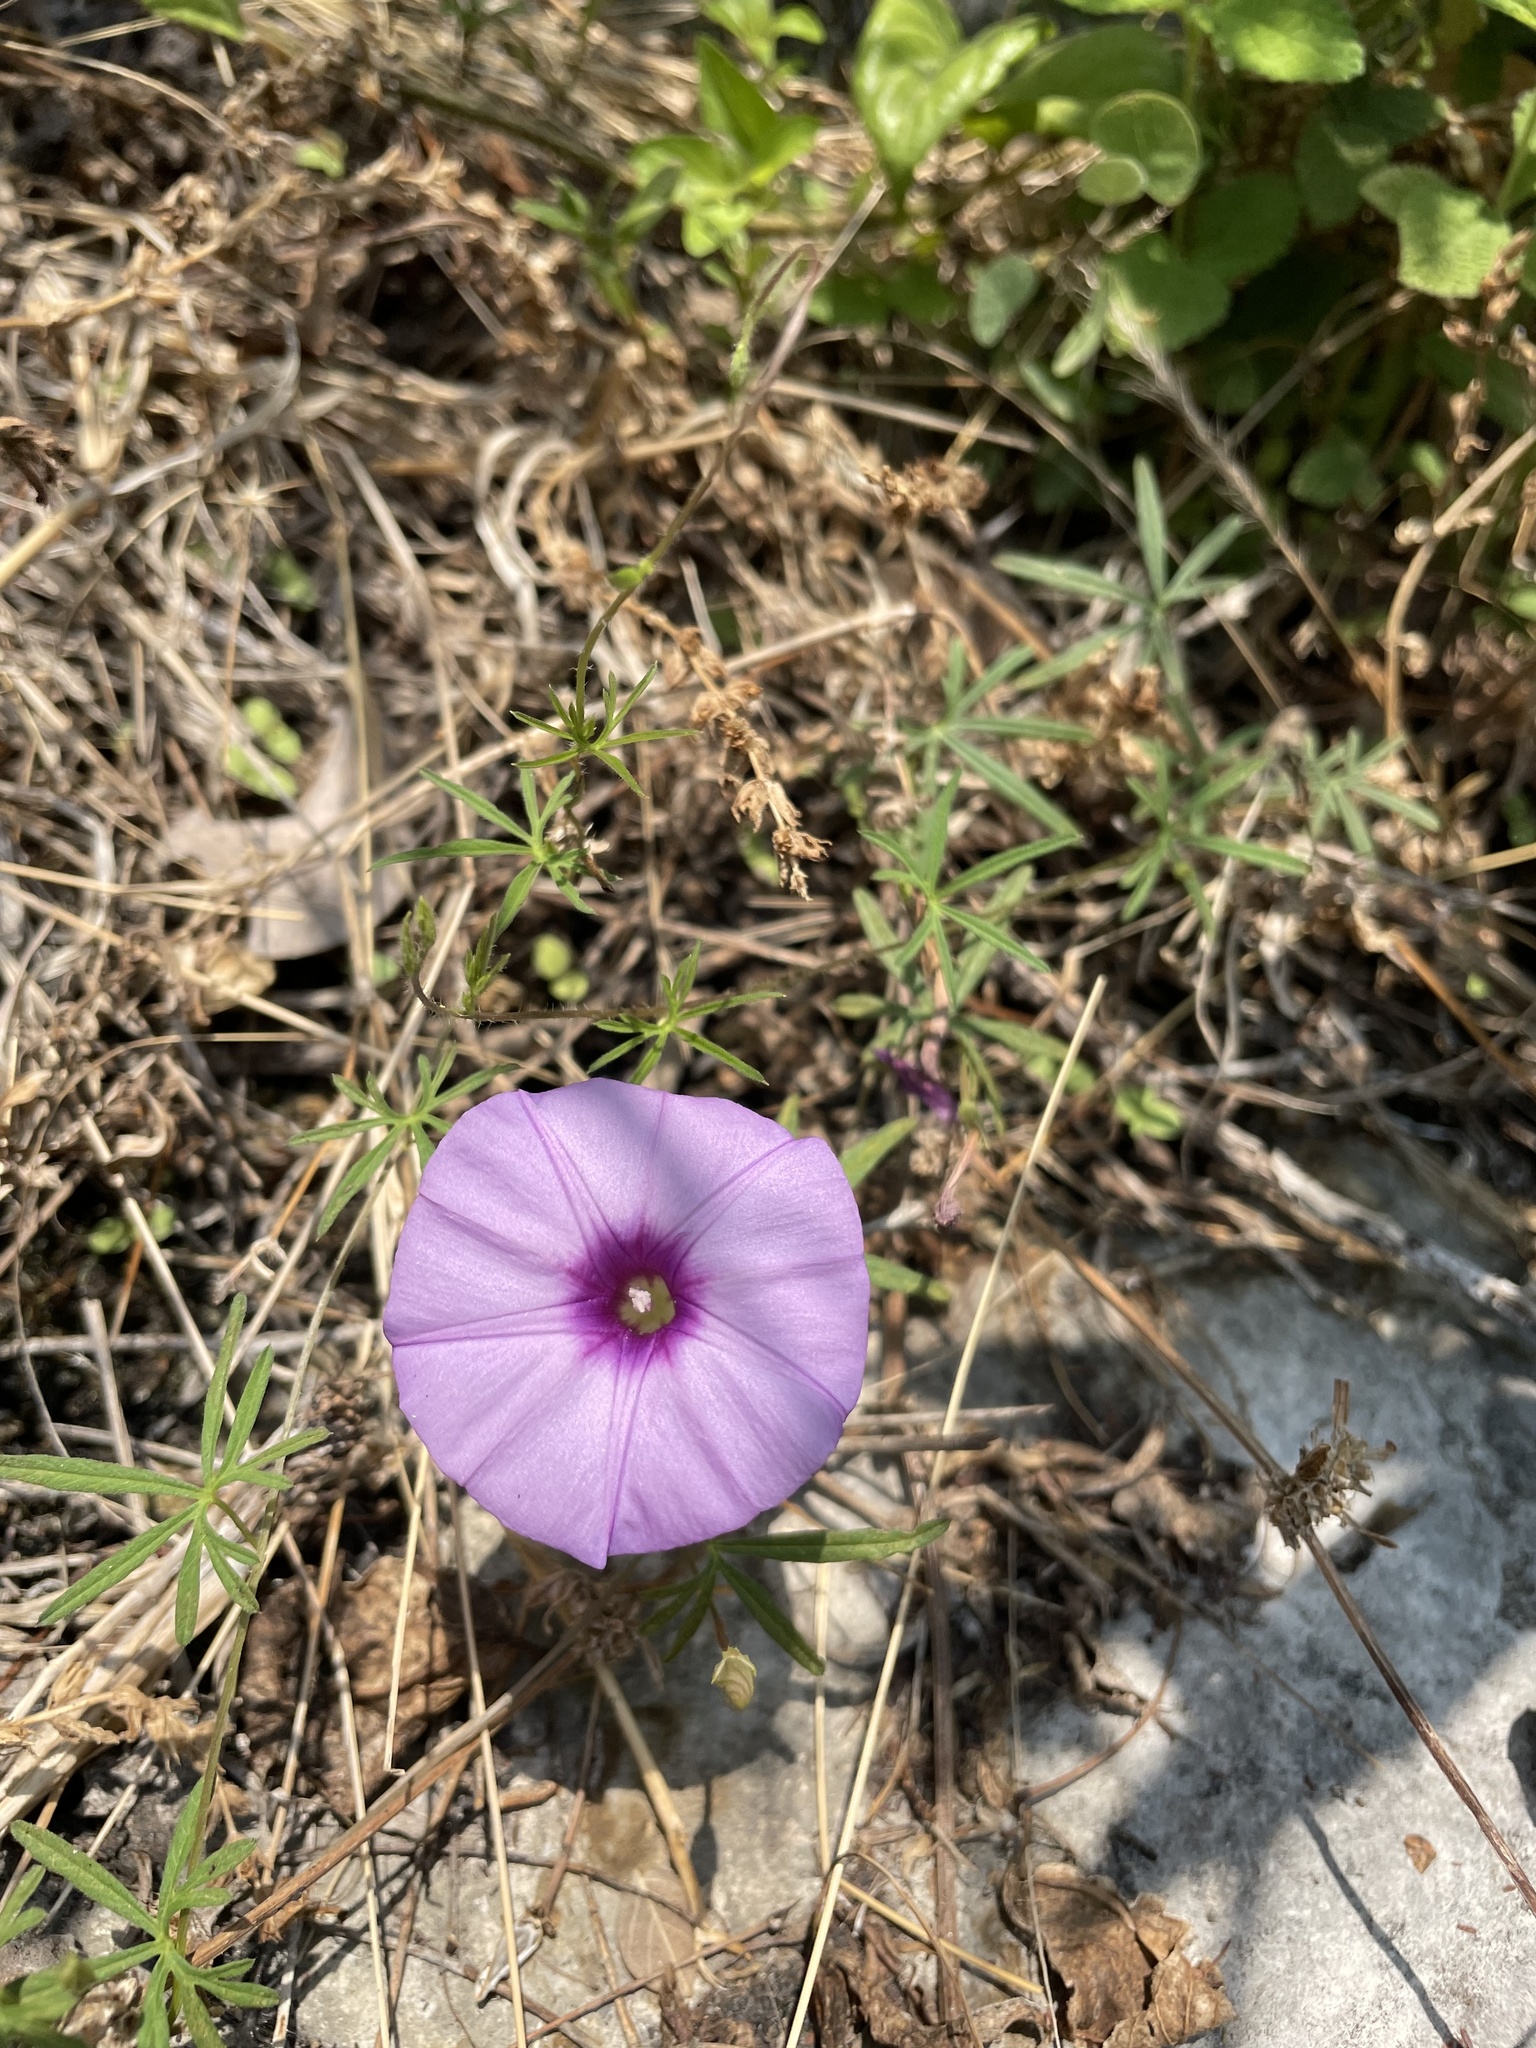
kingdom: Plantae
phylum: Tracheophyta
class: Magnoliopsida
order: Solanales
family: Convolvulaceae
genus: Ipomoea
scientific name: Ipomoea ternifolia
